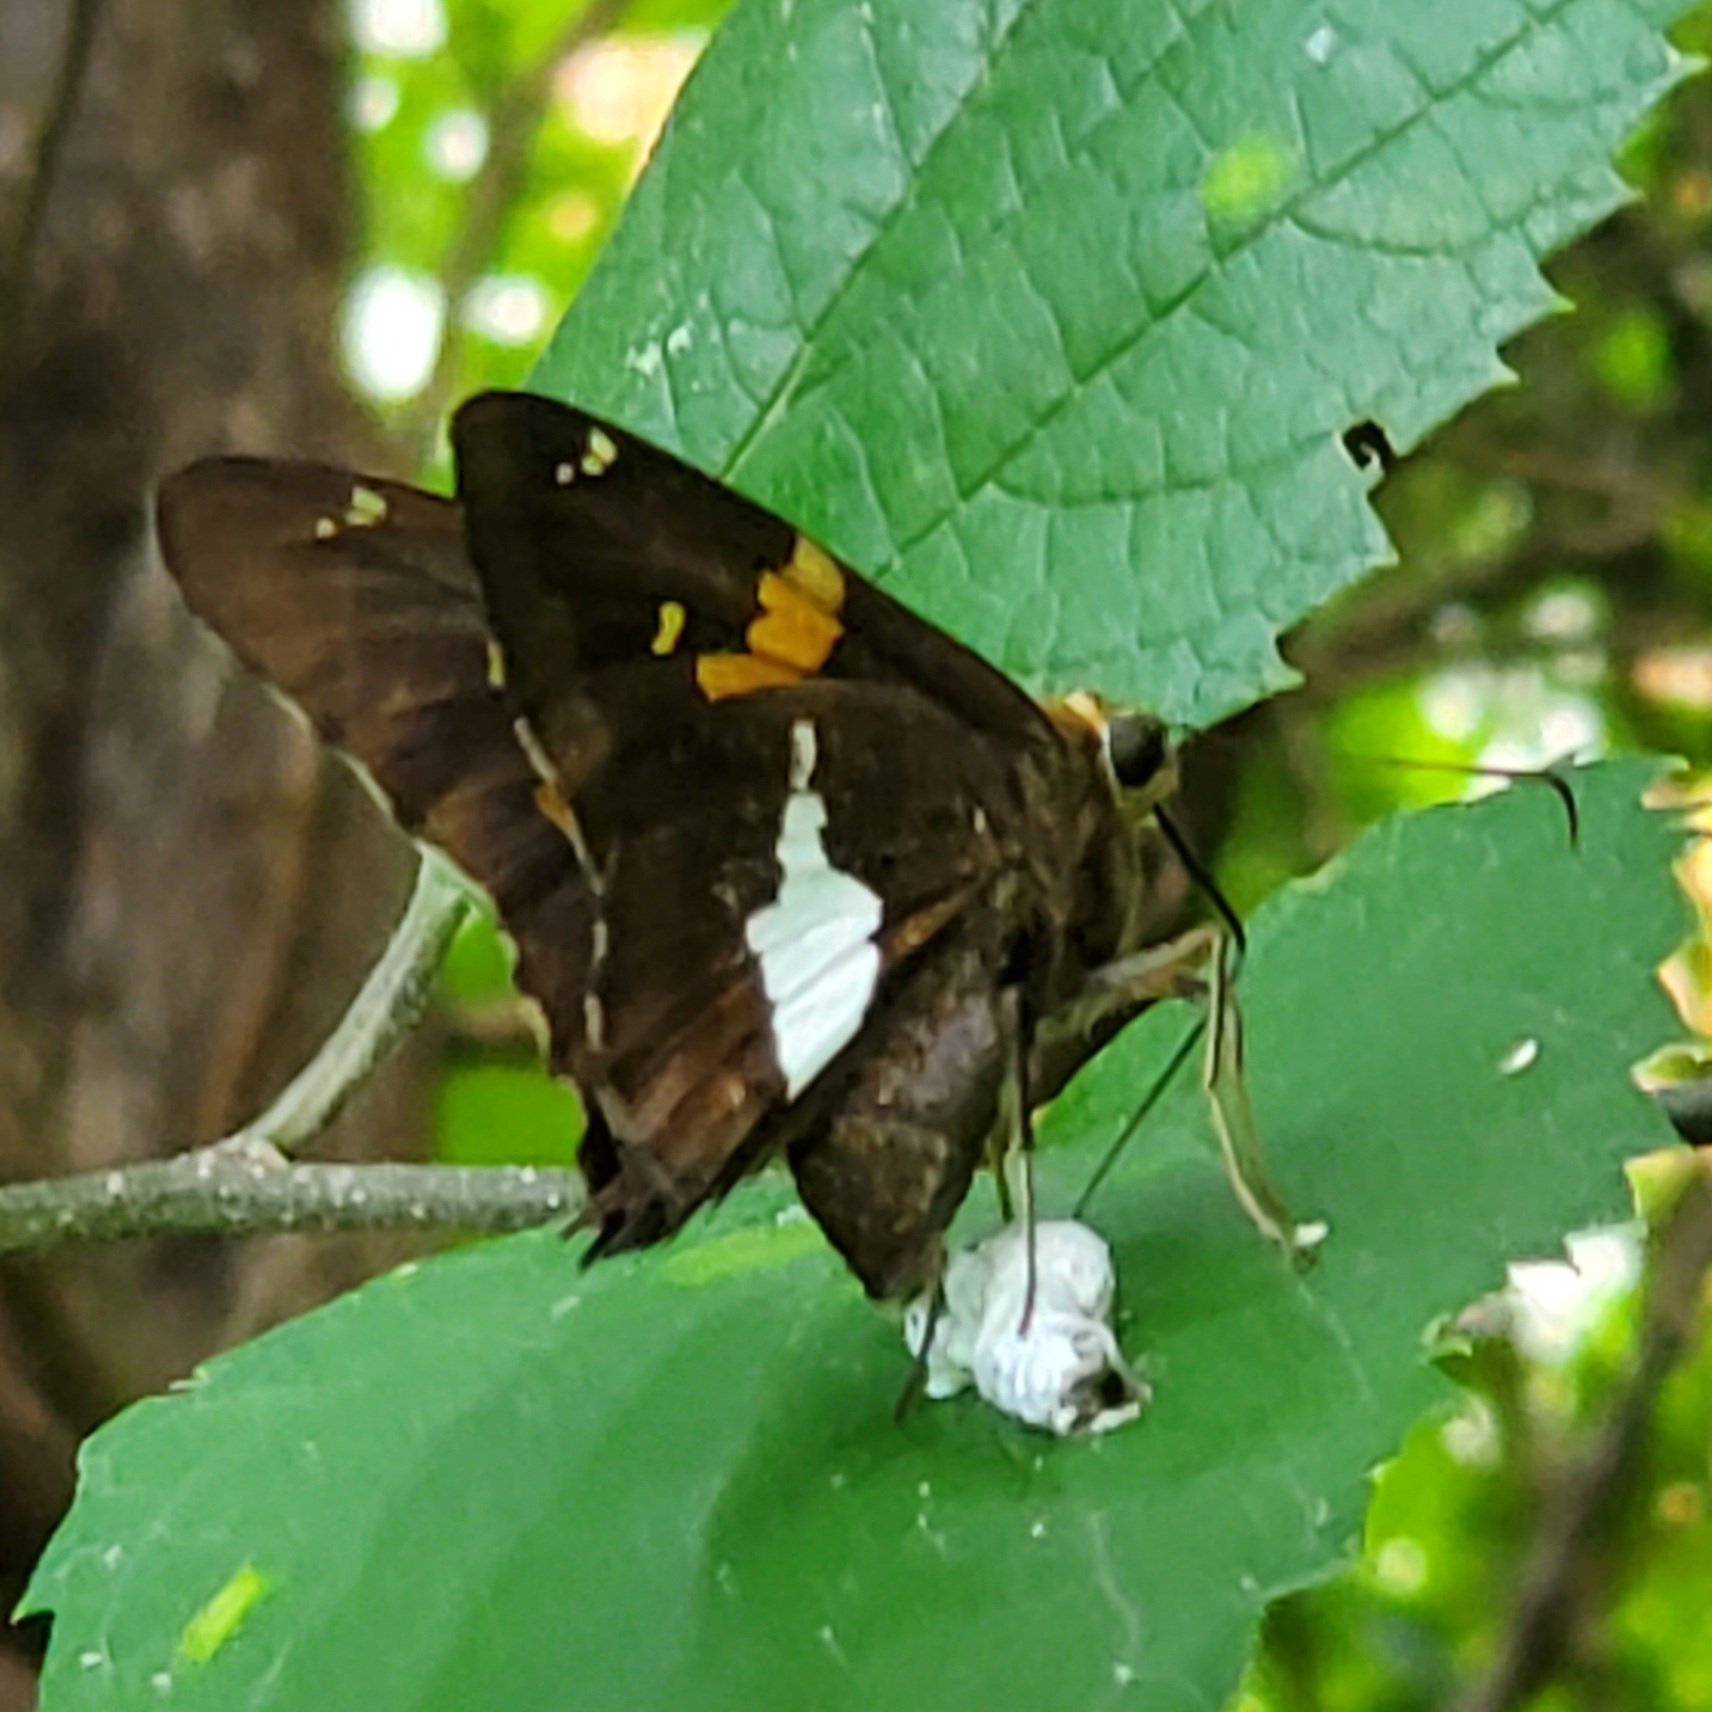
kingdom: Animalia
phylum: Arthropoda
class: Insecta
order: Lepidoptera
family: Hesperiidae
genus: Epargyreus
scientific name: Epargyreus clarus
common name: Silver-spotted skipper
